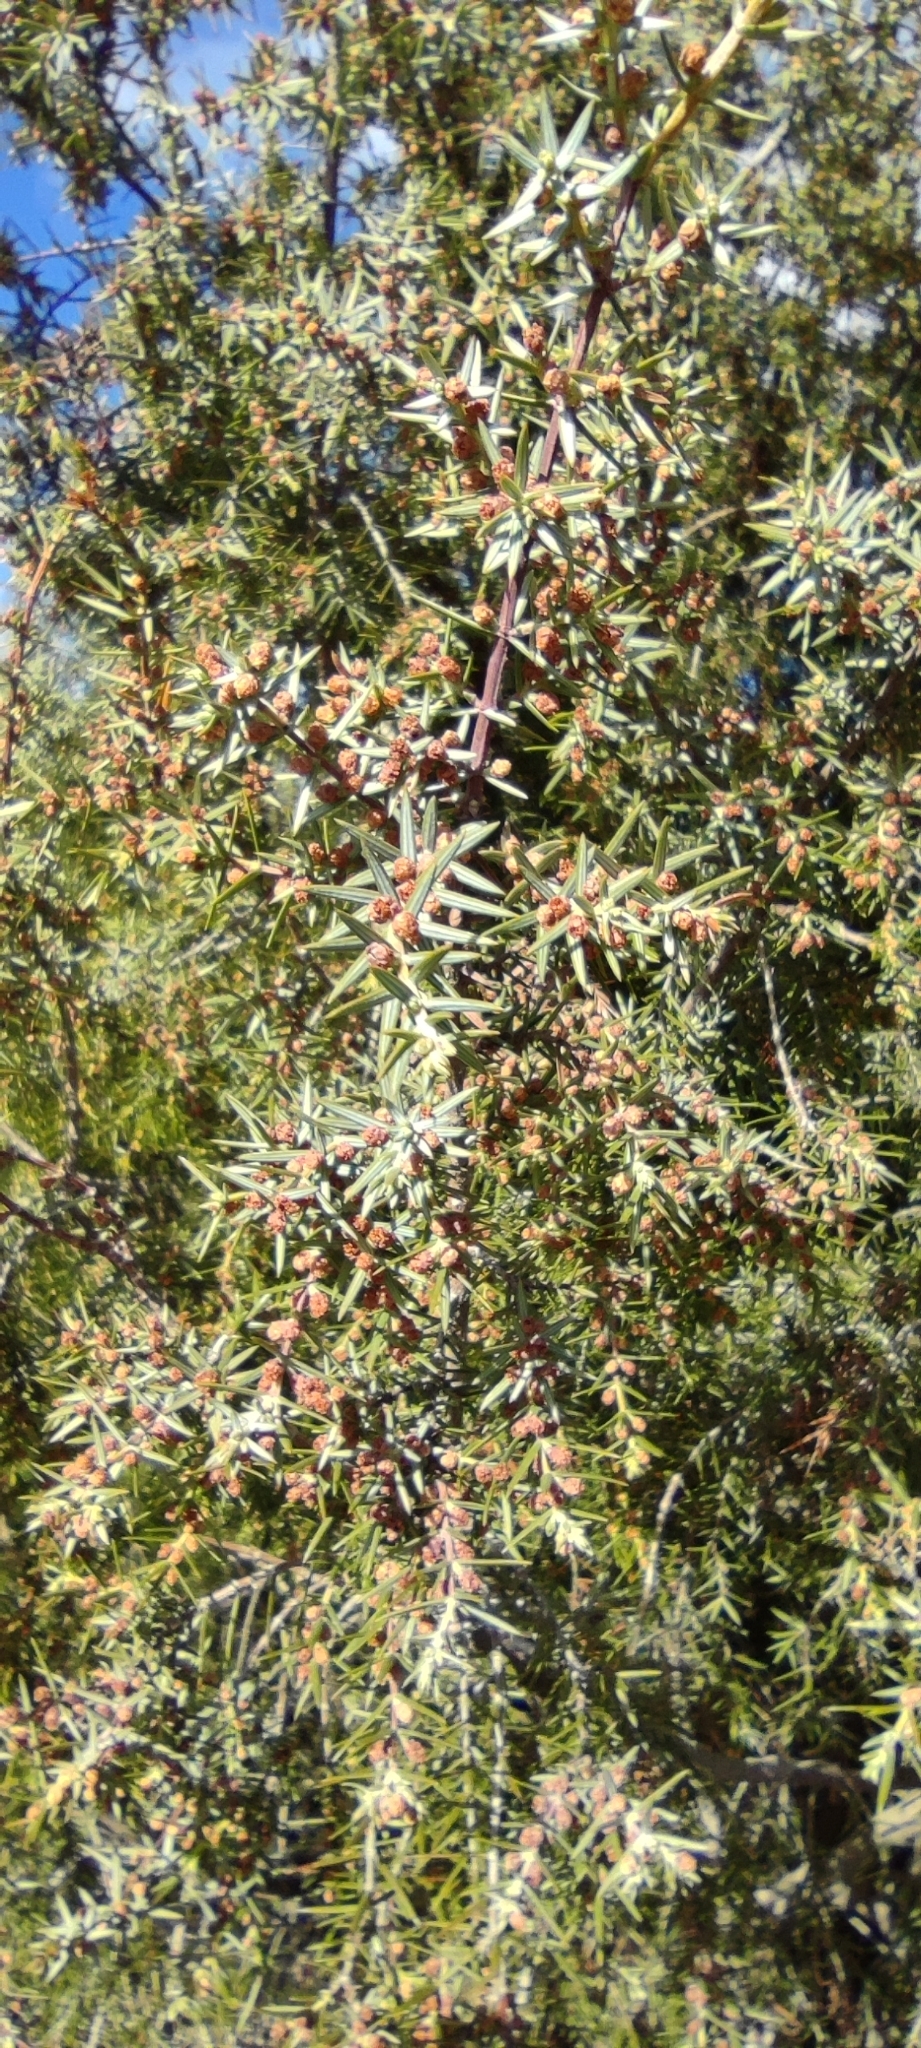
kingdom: Plantae
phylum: Tracheophyta
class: Pinopsida
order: Pinales
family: Cupressaceae
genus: Juniperus
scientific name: Juniperus oxycedrus
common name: Prickly juniper
